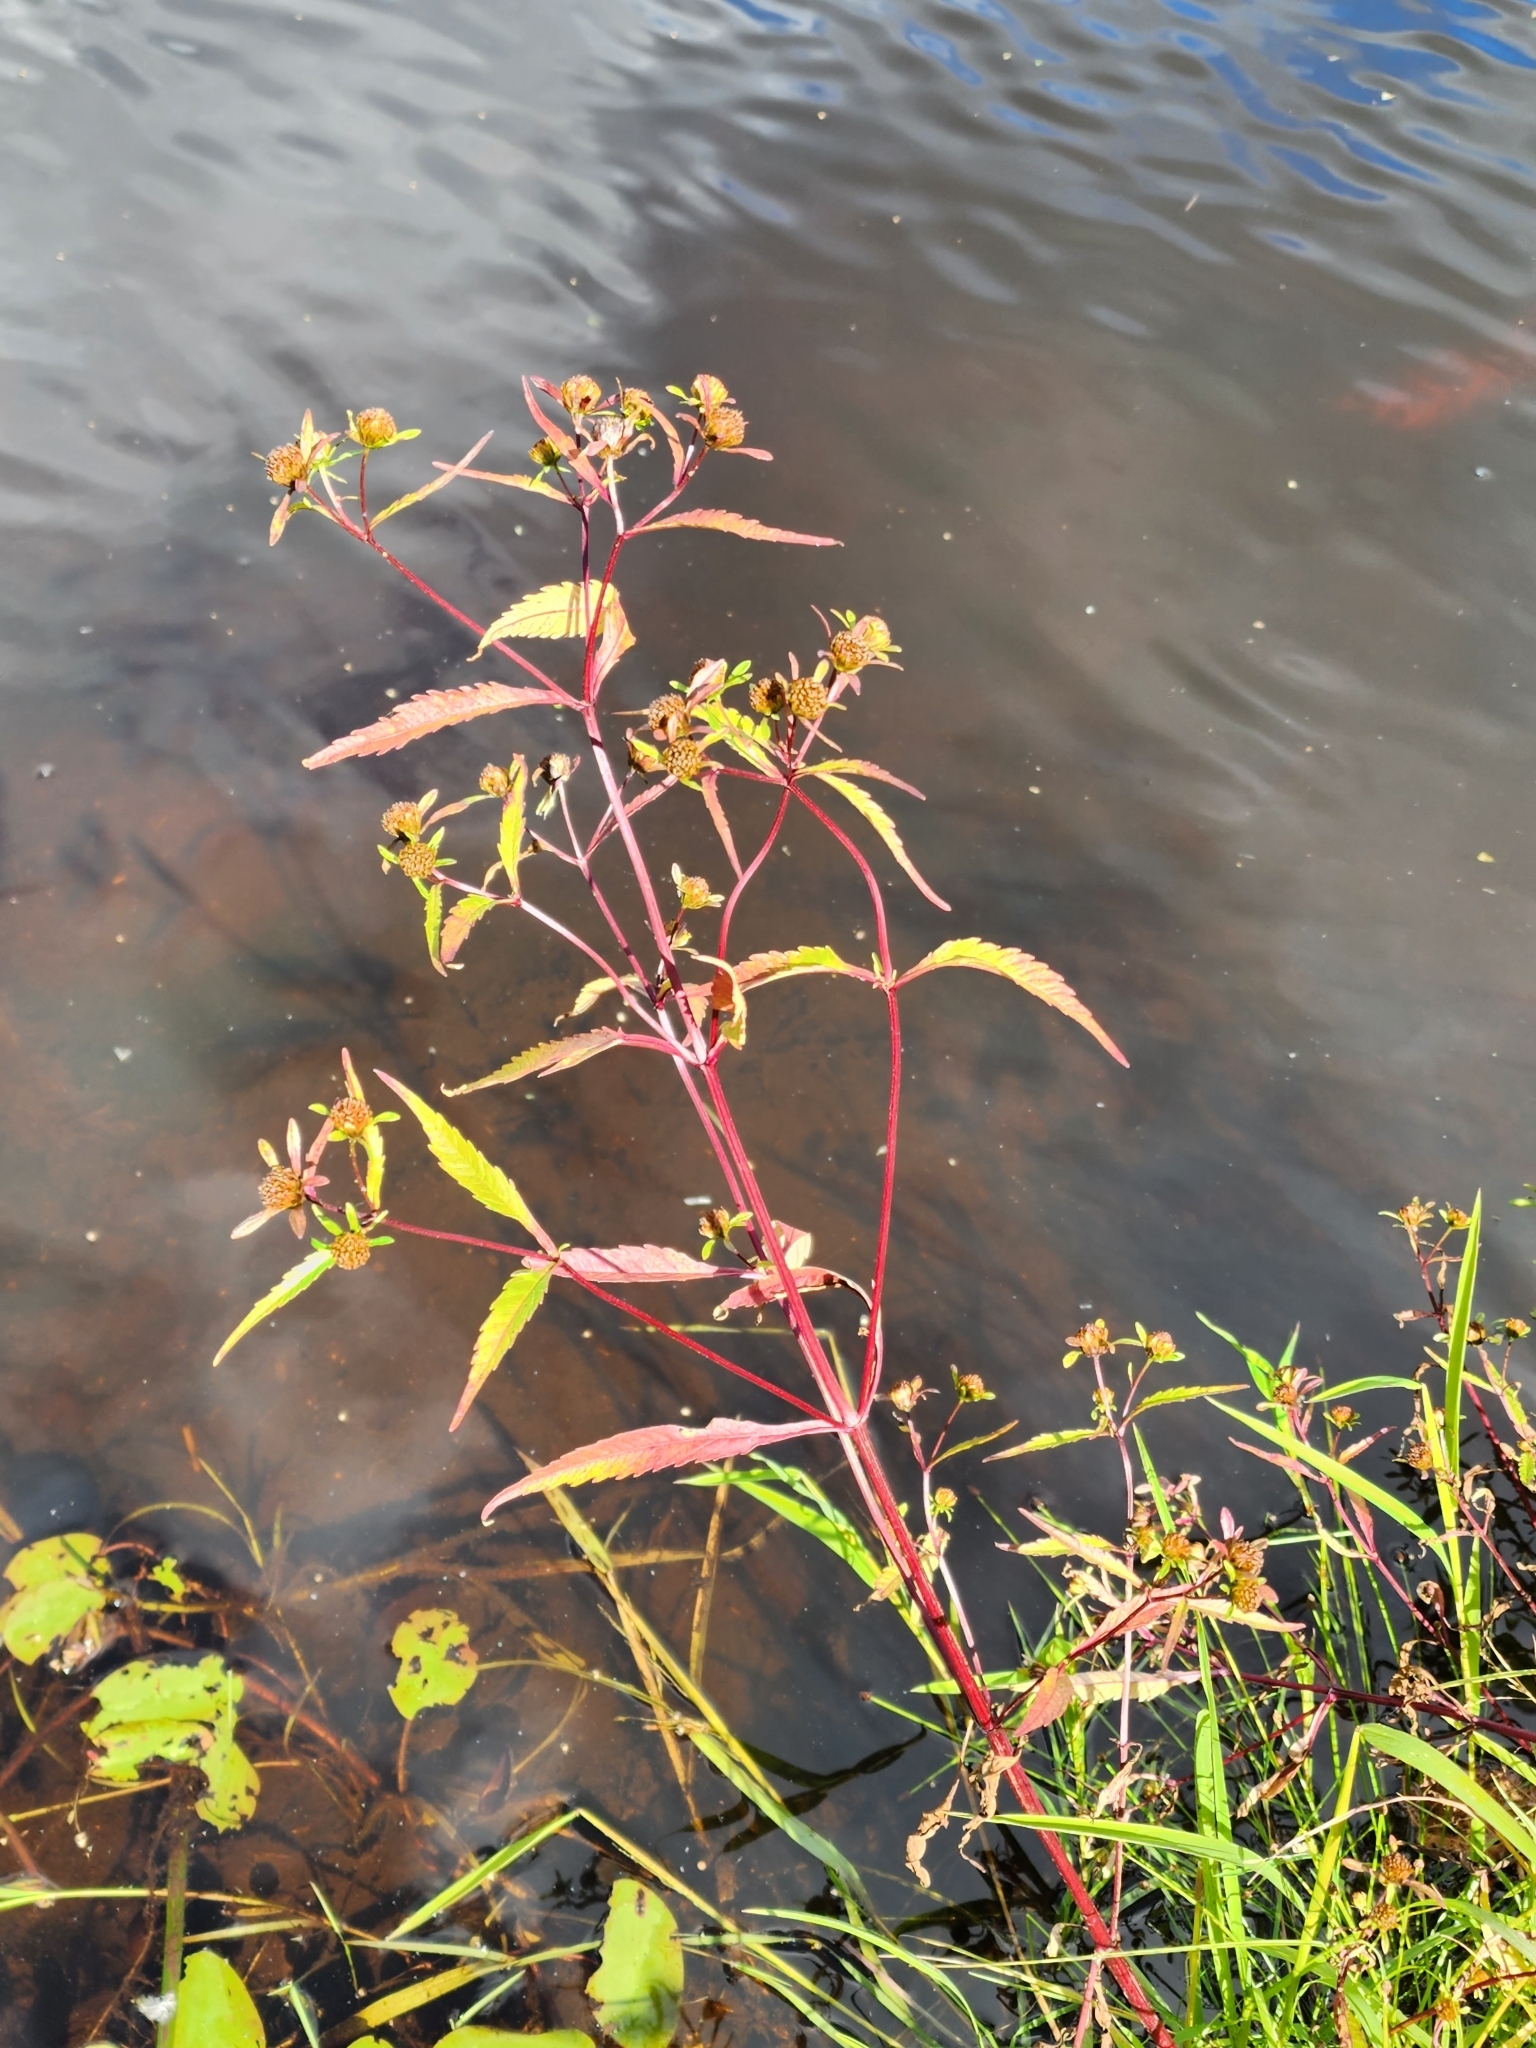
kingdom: Plantae
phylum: Tracheophyta
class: Magnoliopsida
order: Asterales
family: Asteraceae
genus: Bidens
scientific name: Bidens connata
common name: London bur-marigold
